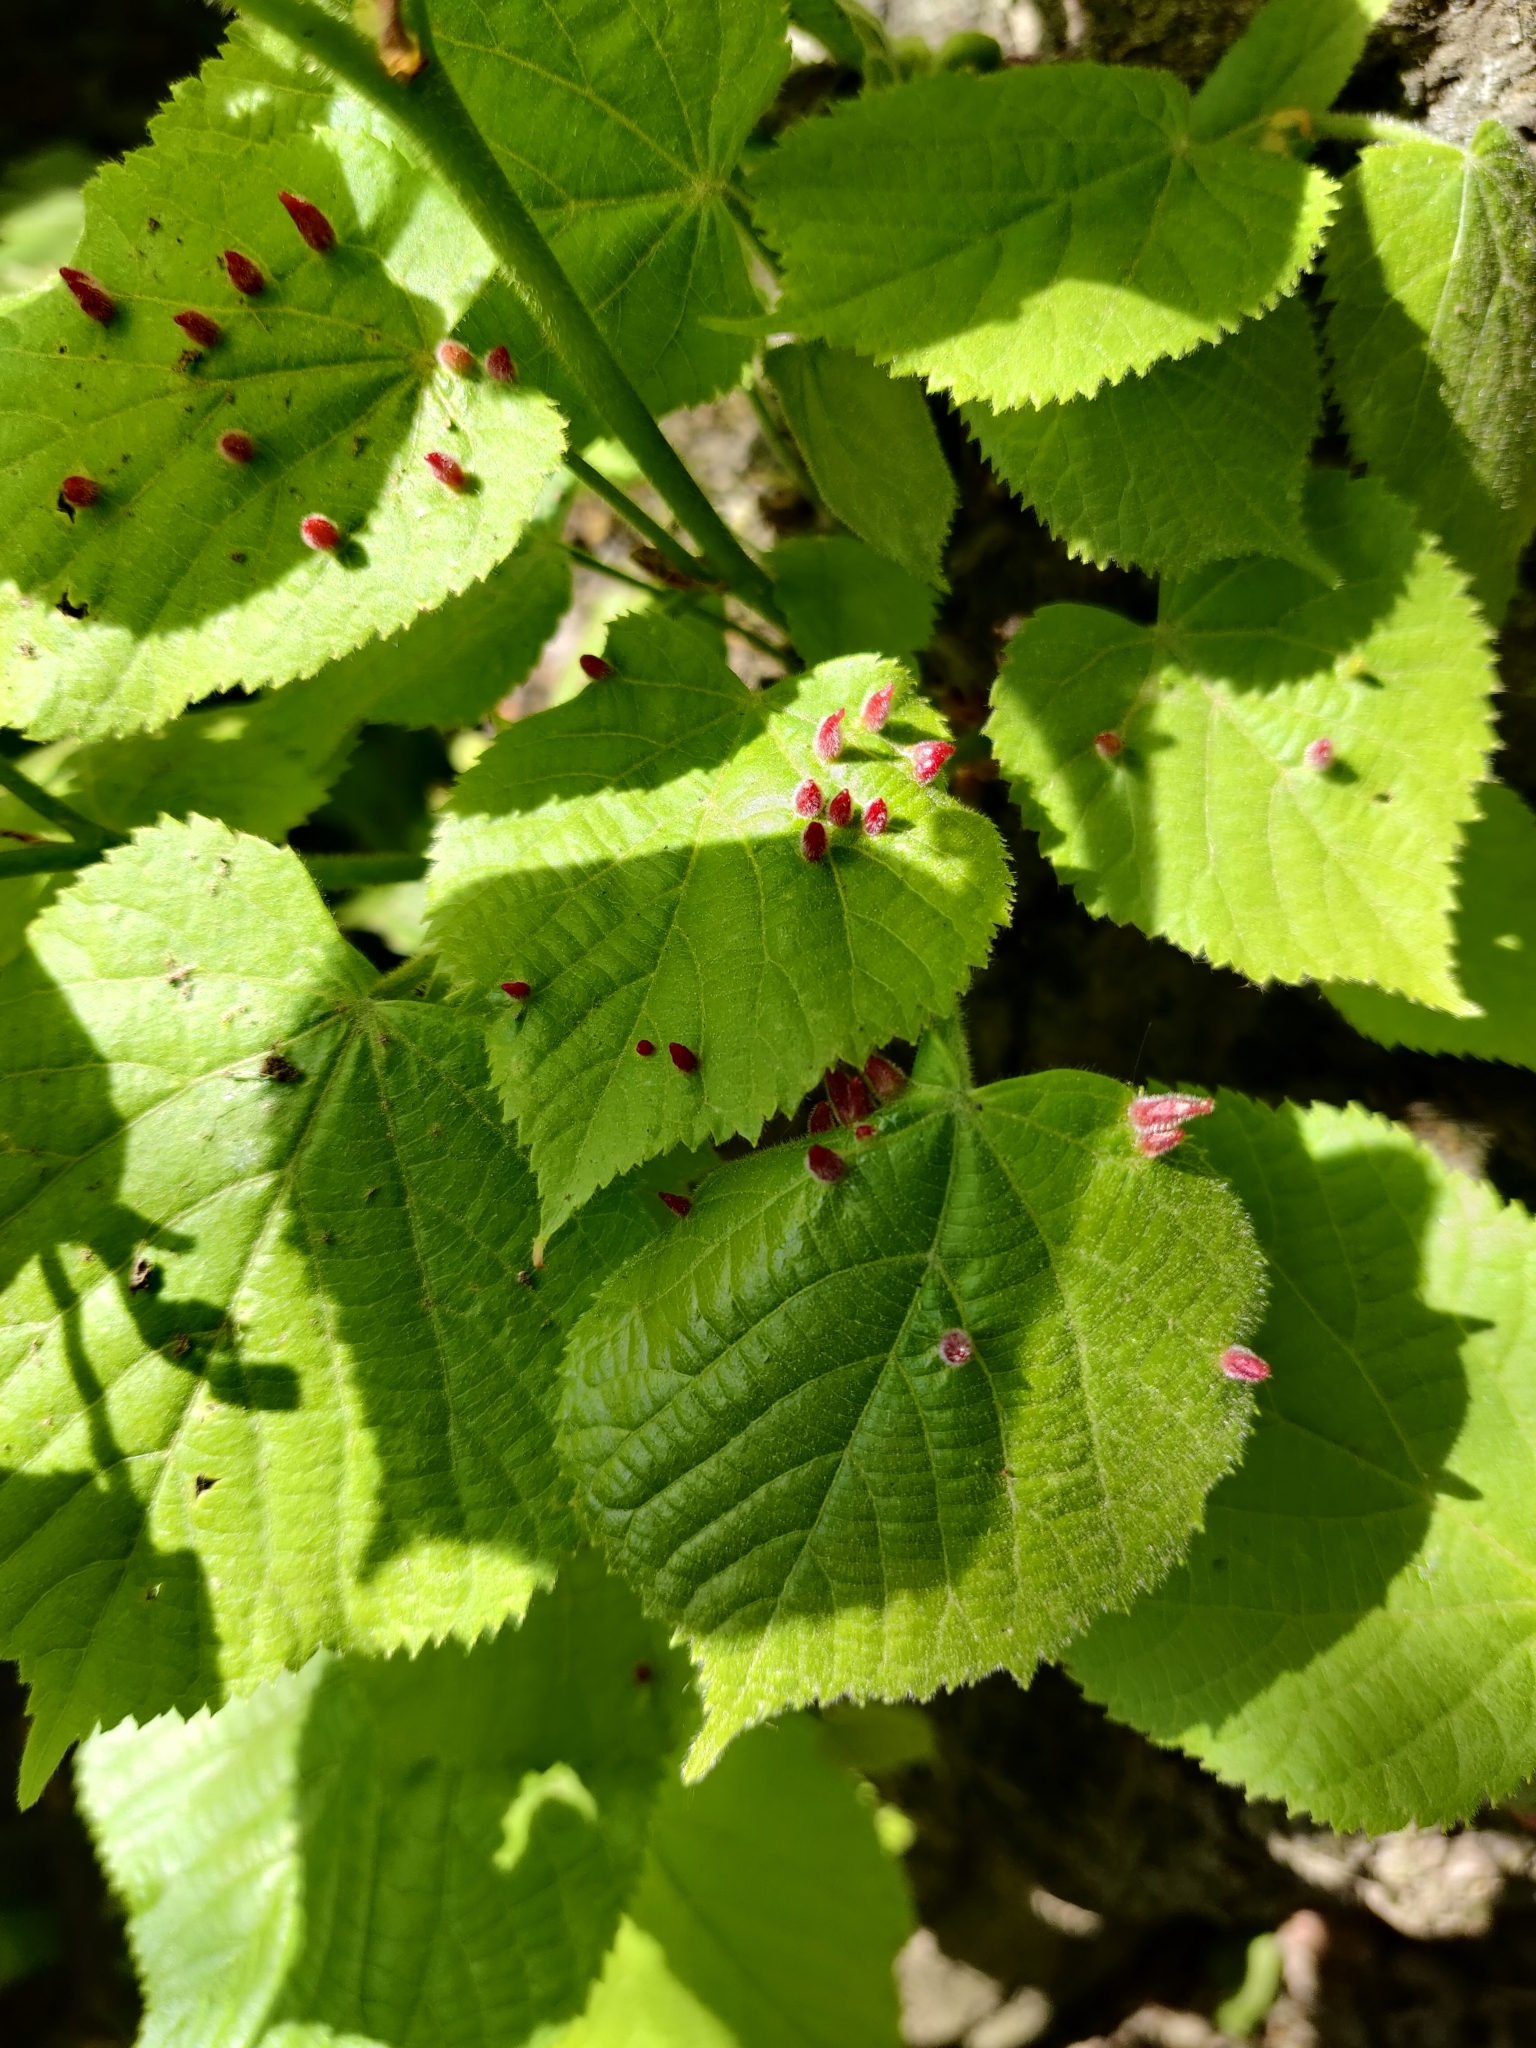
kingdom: Animalia
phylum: Arthropoda
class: Arachnida
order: Trombidiformes
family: Eriophyidae
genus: Eriophyes
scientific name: Eriophyes tiliae
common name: Red nail gall mite
